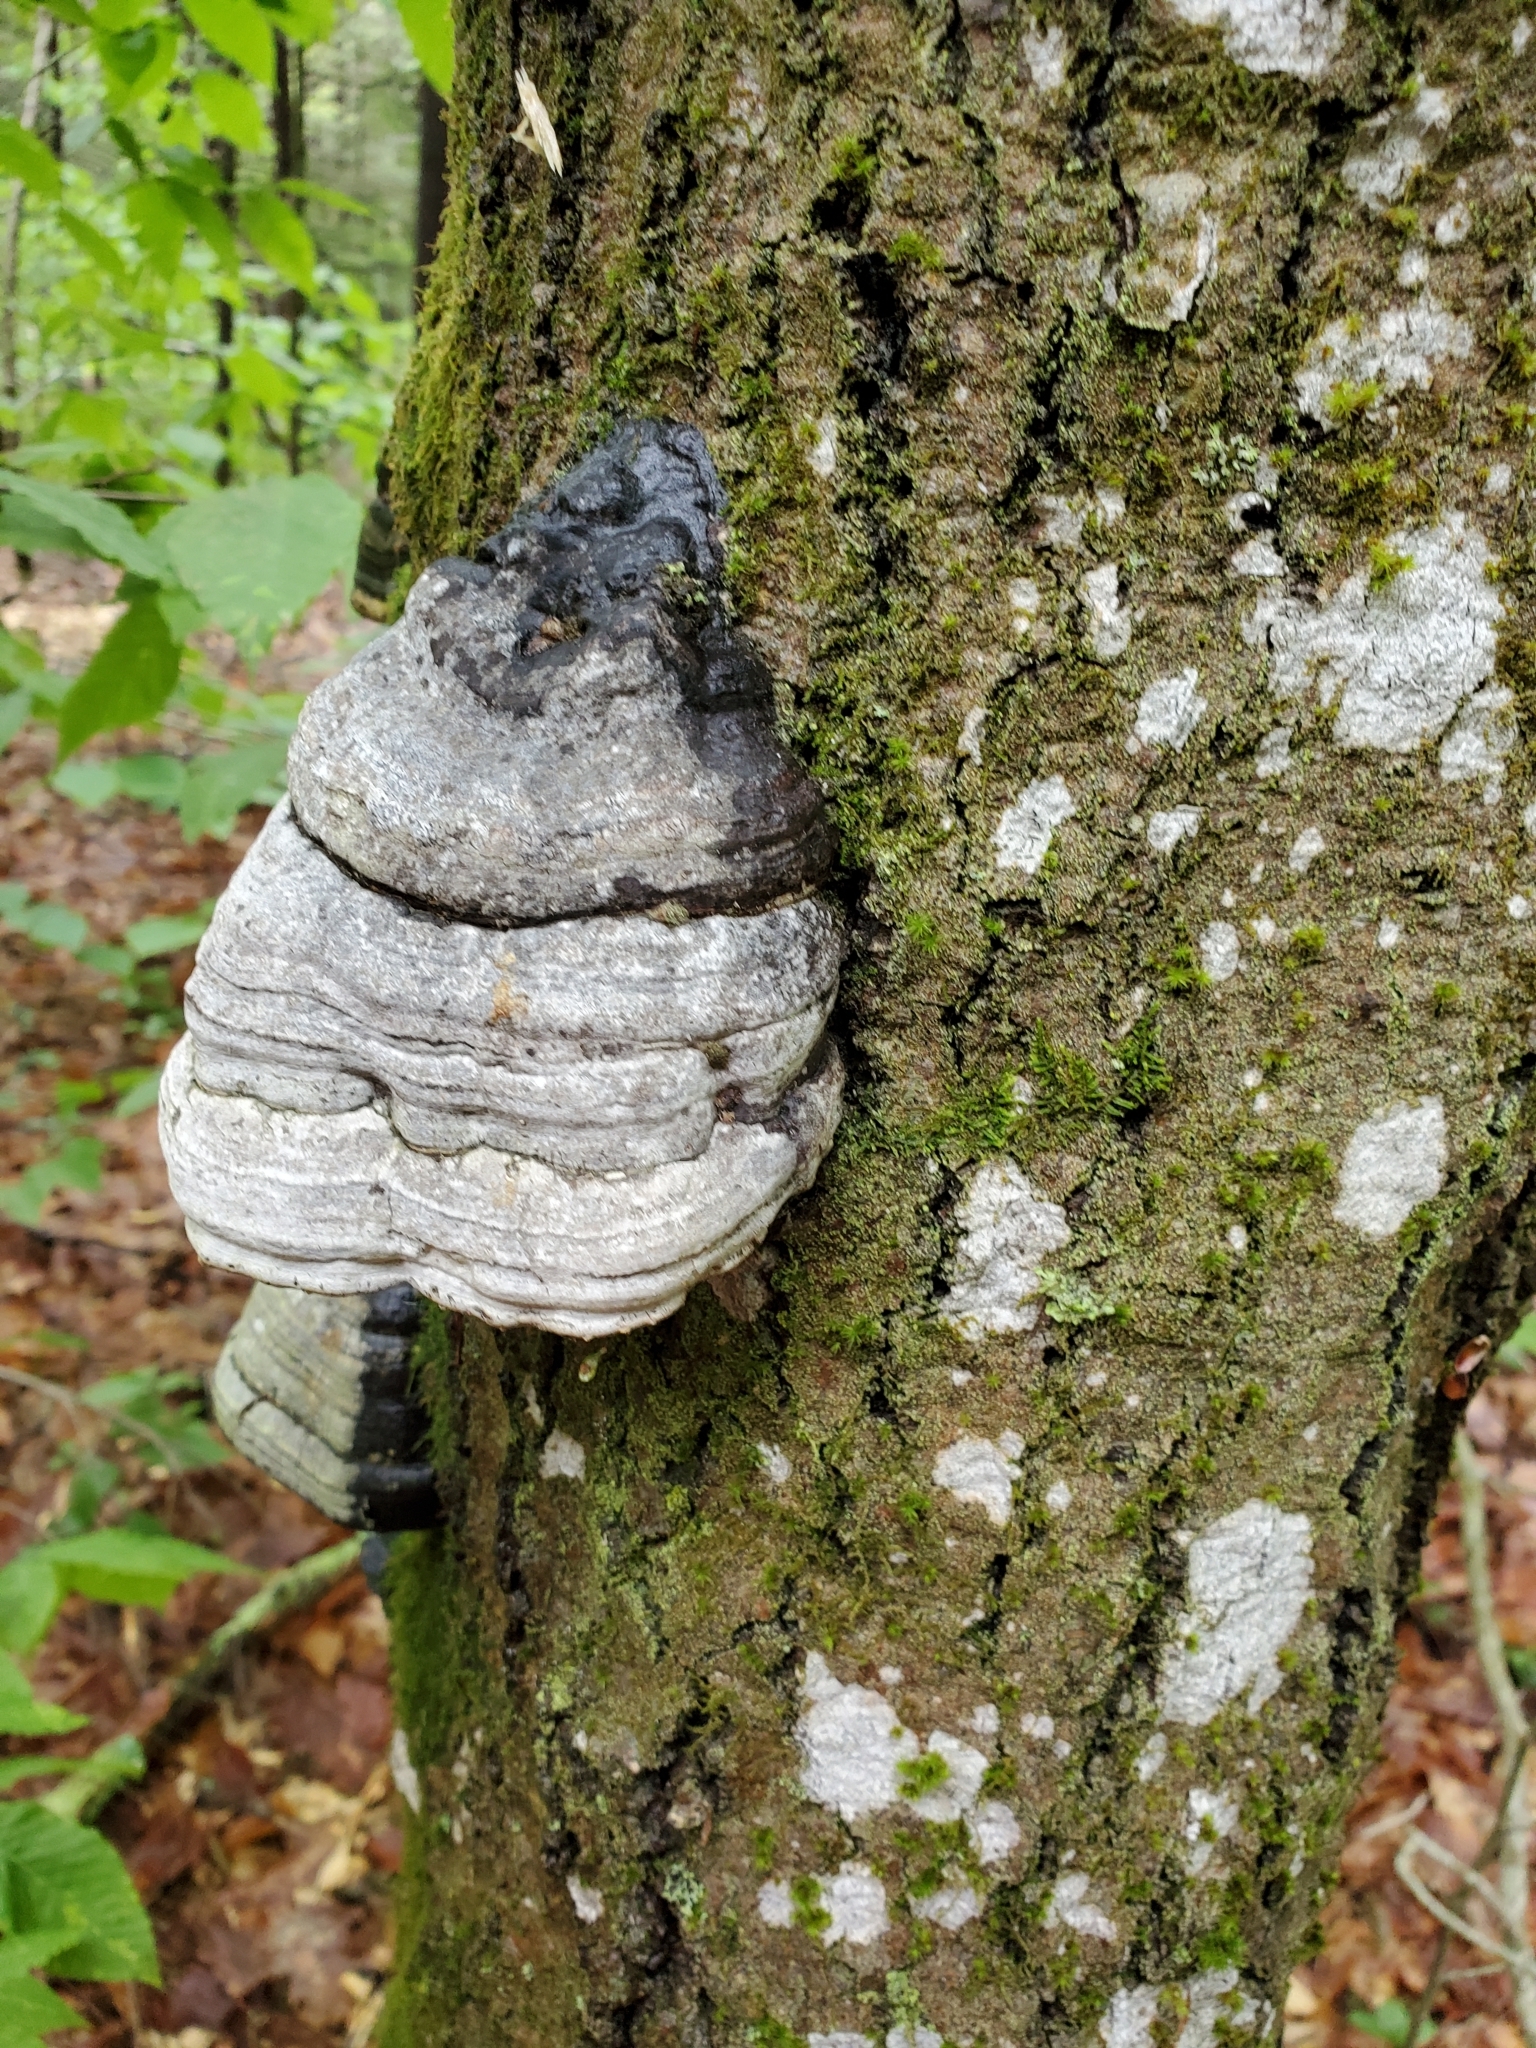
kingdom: Fungi
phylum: Basidiomycota
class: Agaricomycetes
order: Polyporales
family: Polyporaceae
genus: Fomes
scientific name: Fomes fomentarius
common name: Hoof fungus
